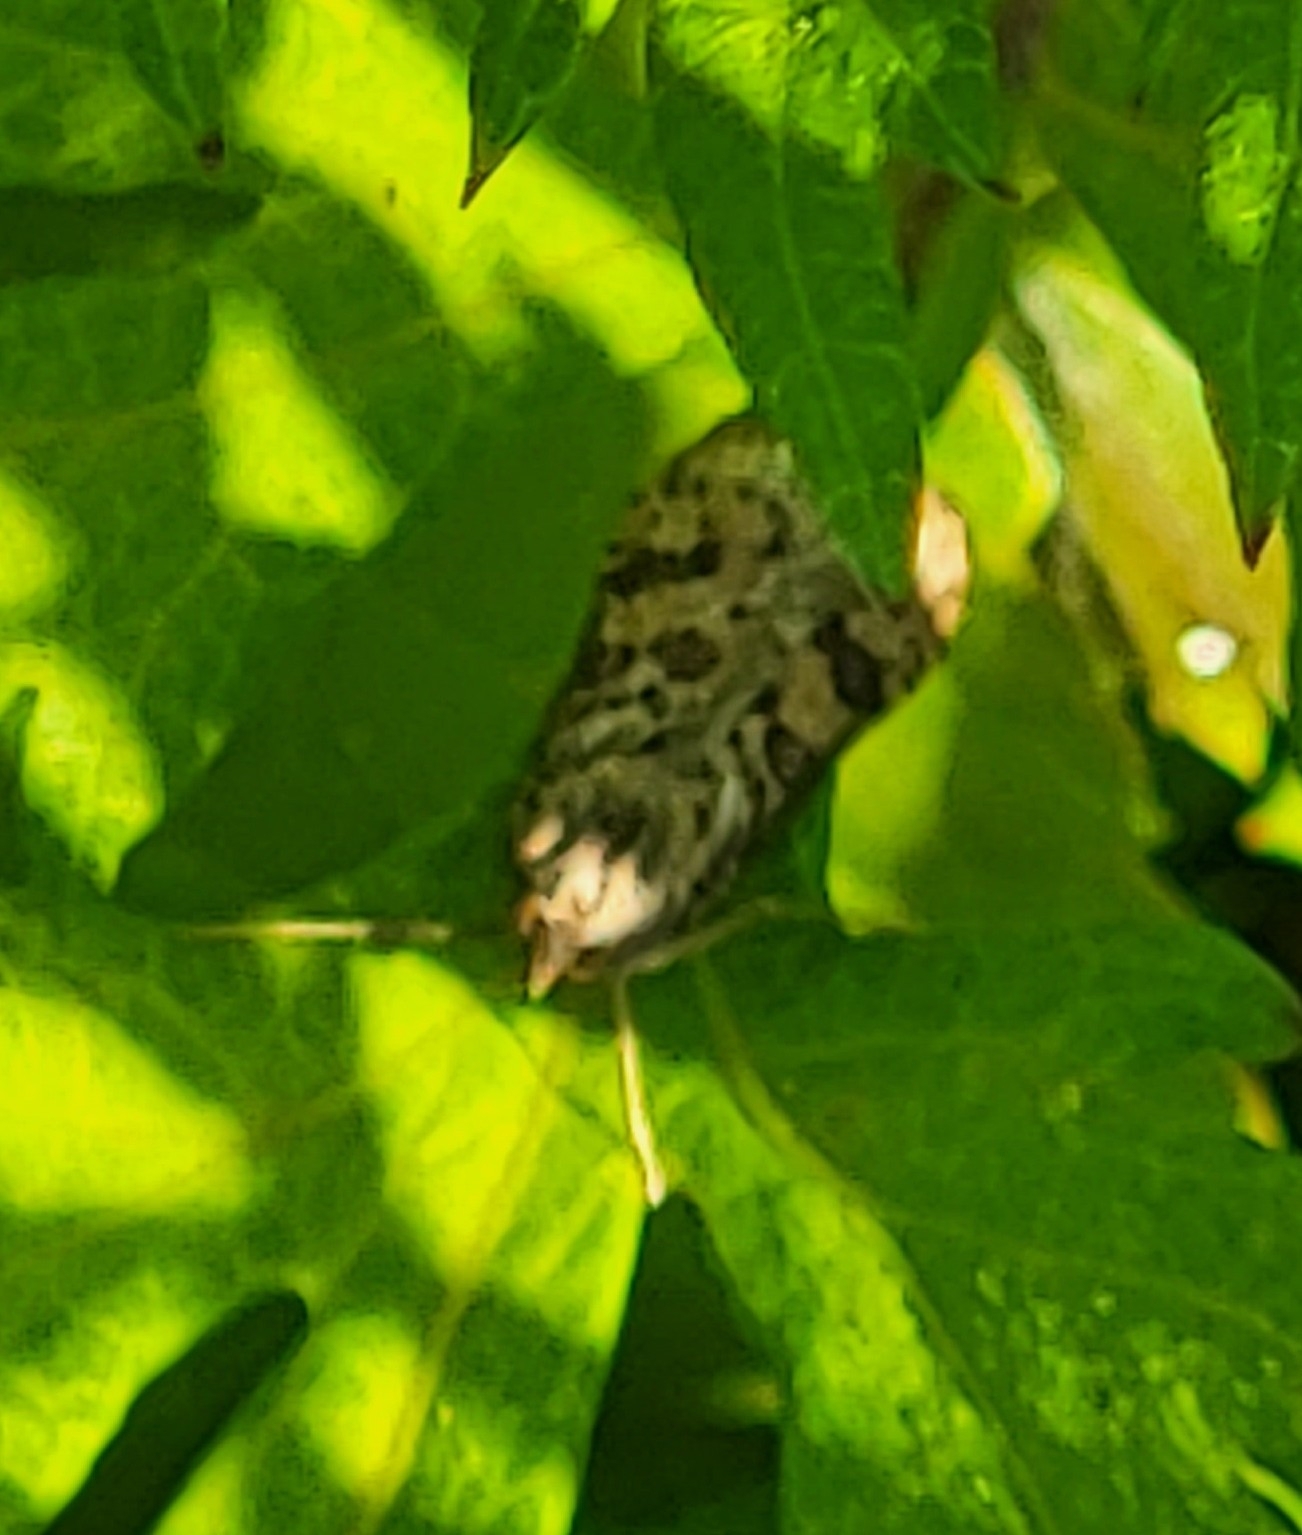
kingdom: Animalia
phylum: Arthropoda
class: Insecta
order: Lepidoptera
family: Crambidae
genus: Nomophila
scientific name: Nomophila nearctica
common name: American rush veneer
